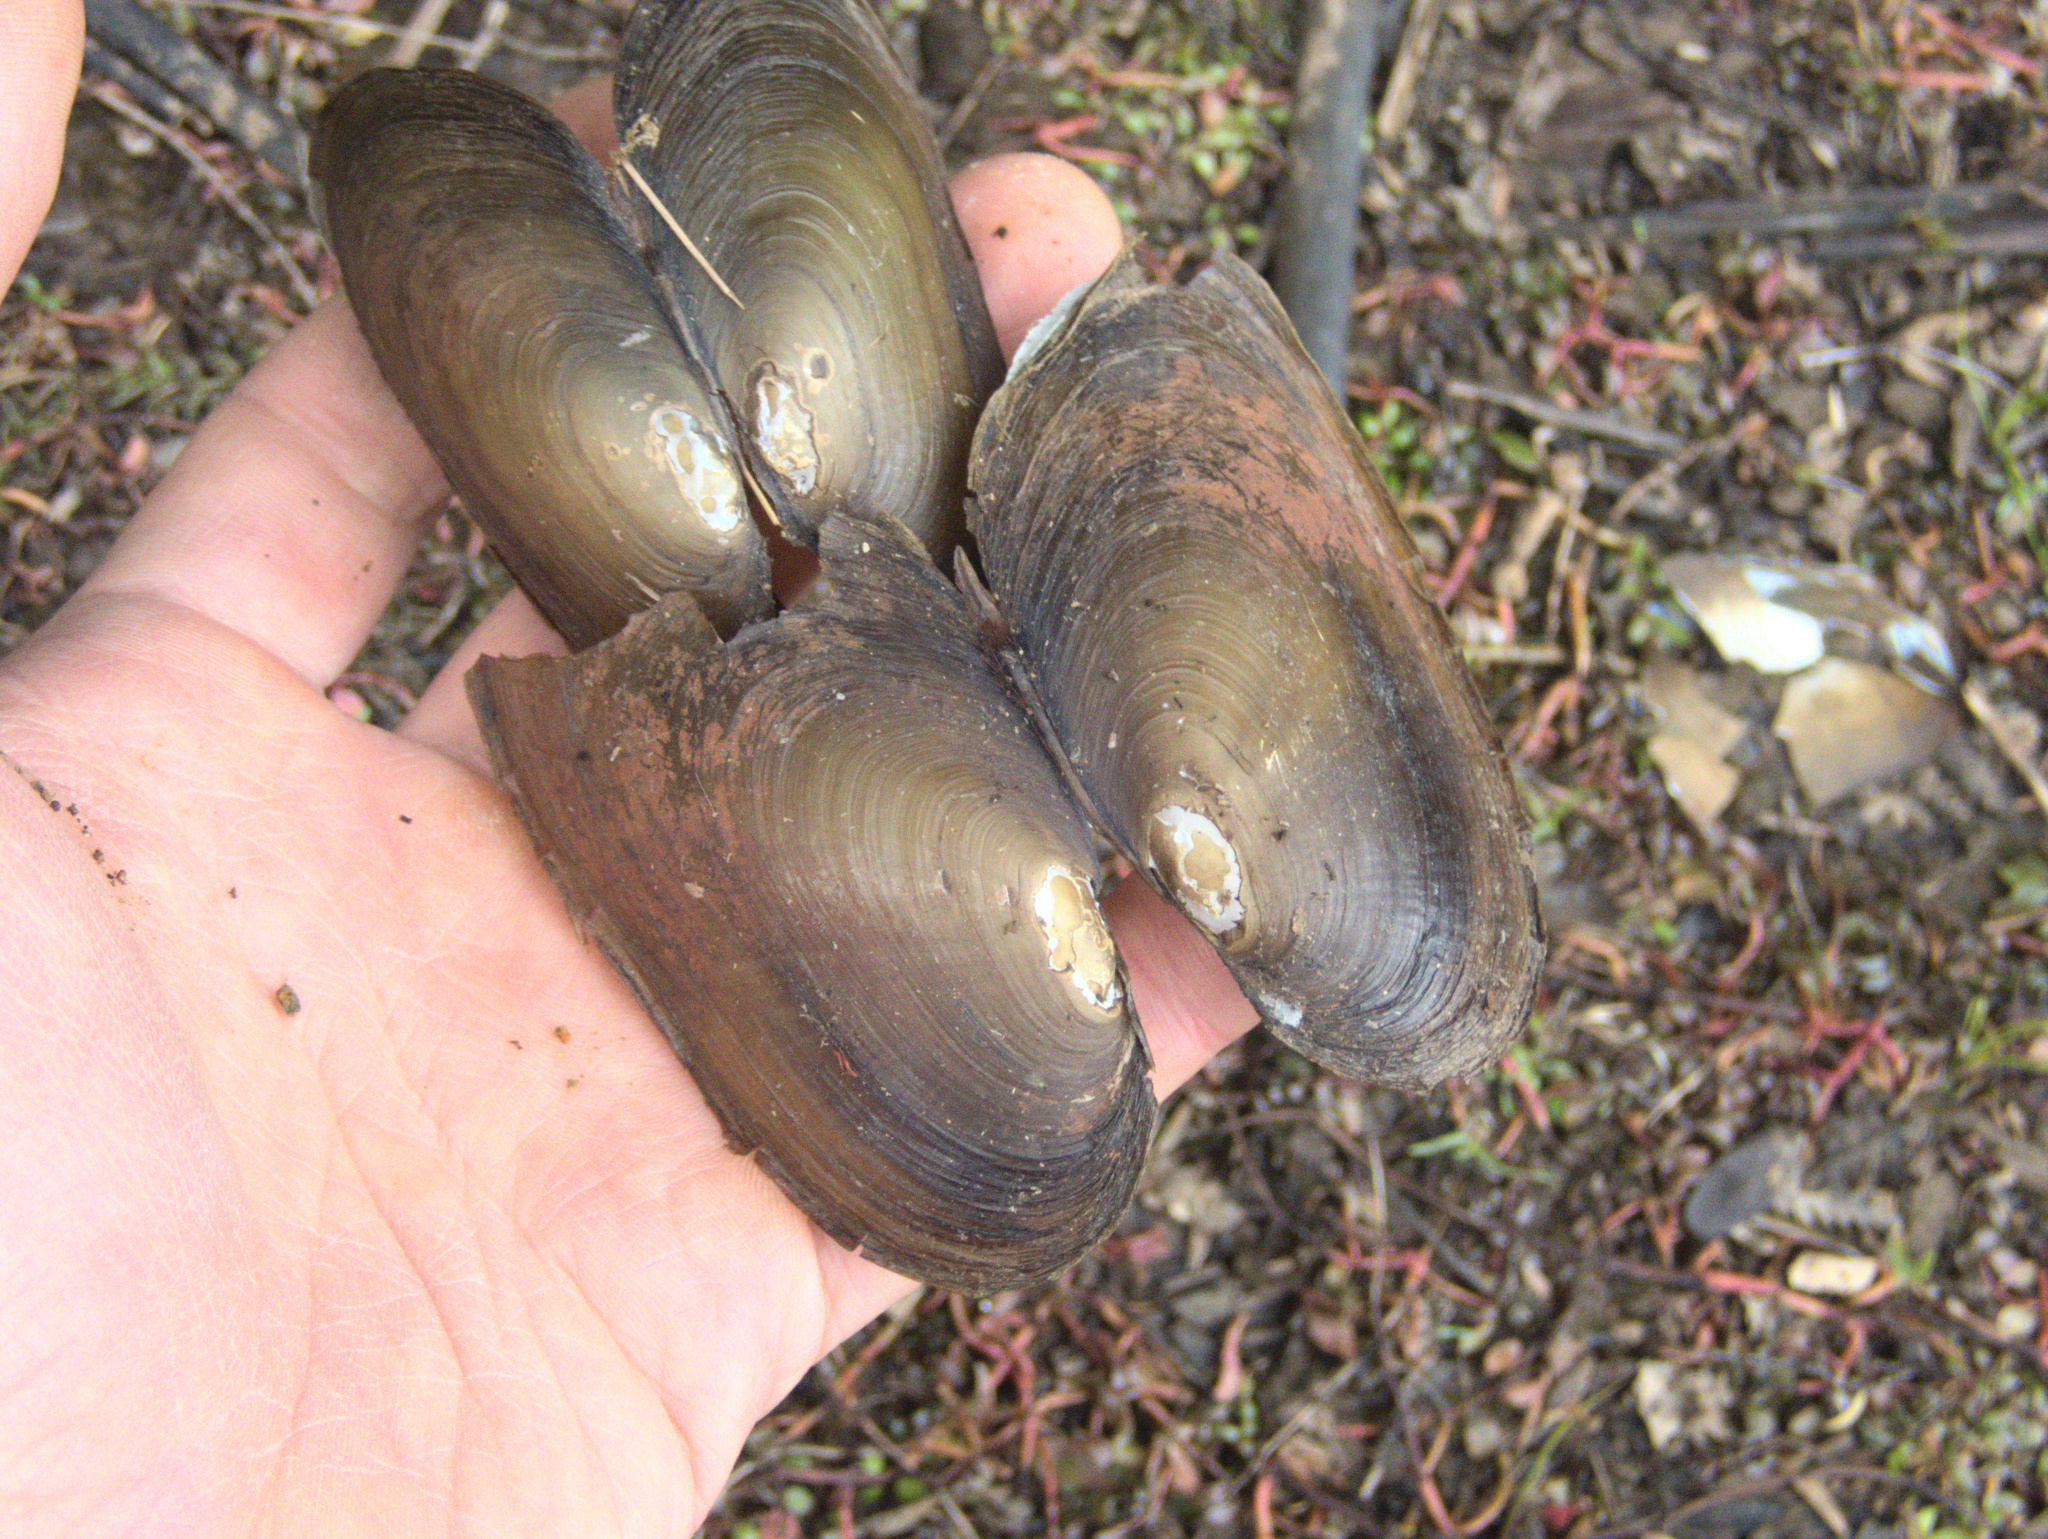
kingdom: Animalia
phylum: Mollusca
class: Bivalvia
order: Unionida
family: Hyriidae
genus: Echyridella
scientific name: Echyridella menziesii
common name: New zealand freshwater mussel
